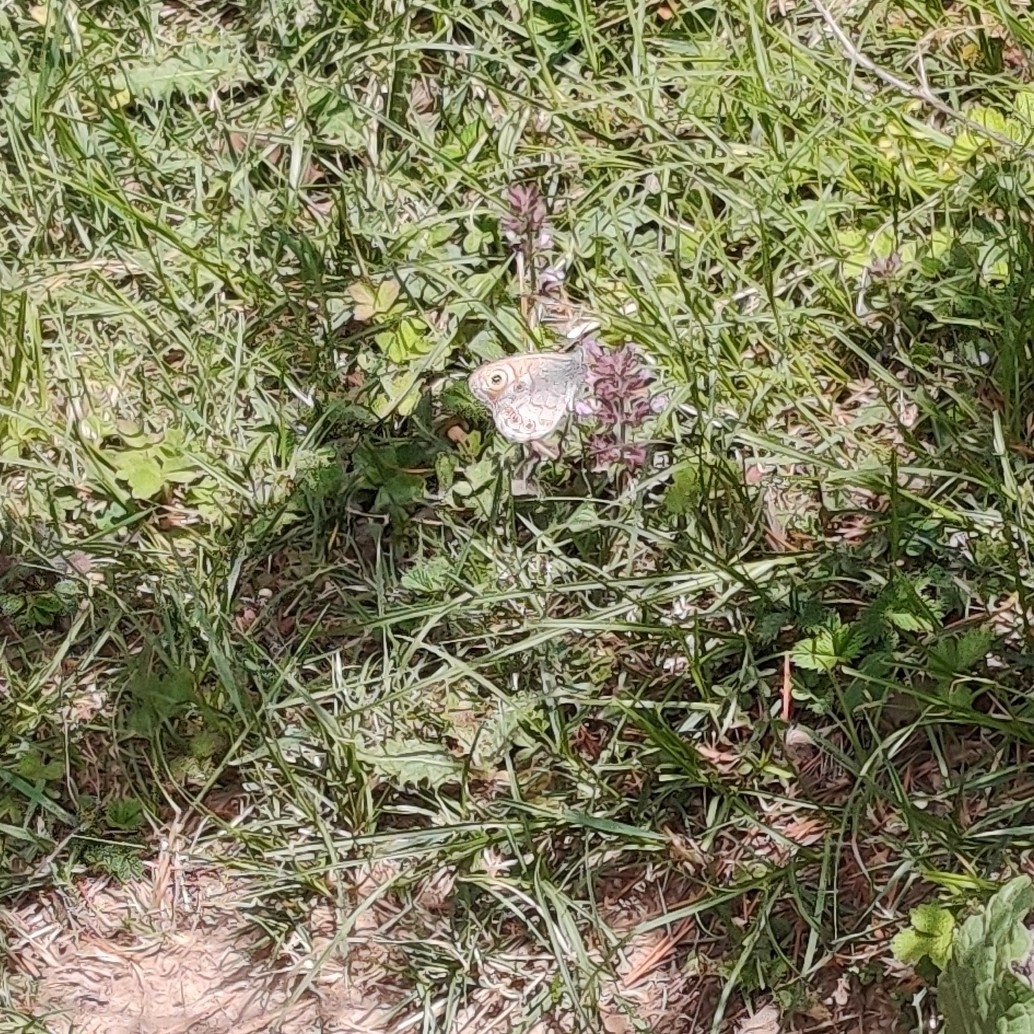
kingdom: Animalia
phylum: Arthropoda
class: Insecta
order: Lepidoptera
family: Nymphalidae
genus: Pararge
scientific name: Pararge Lasiommata schakra
